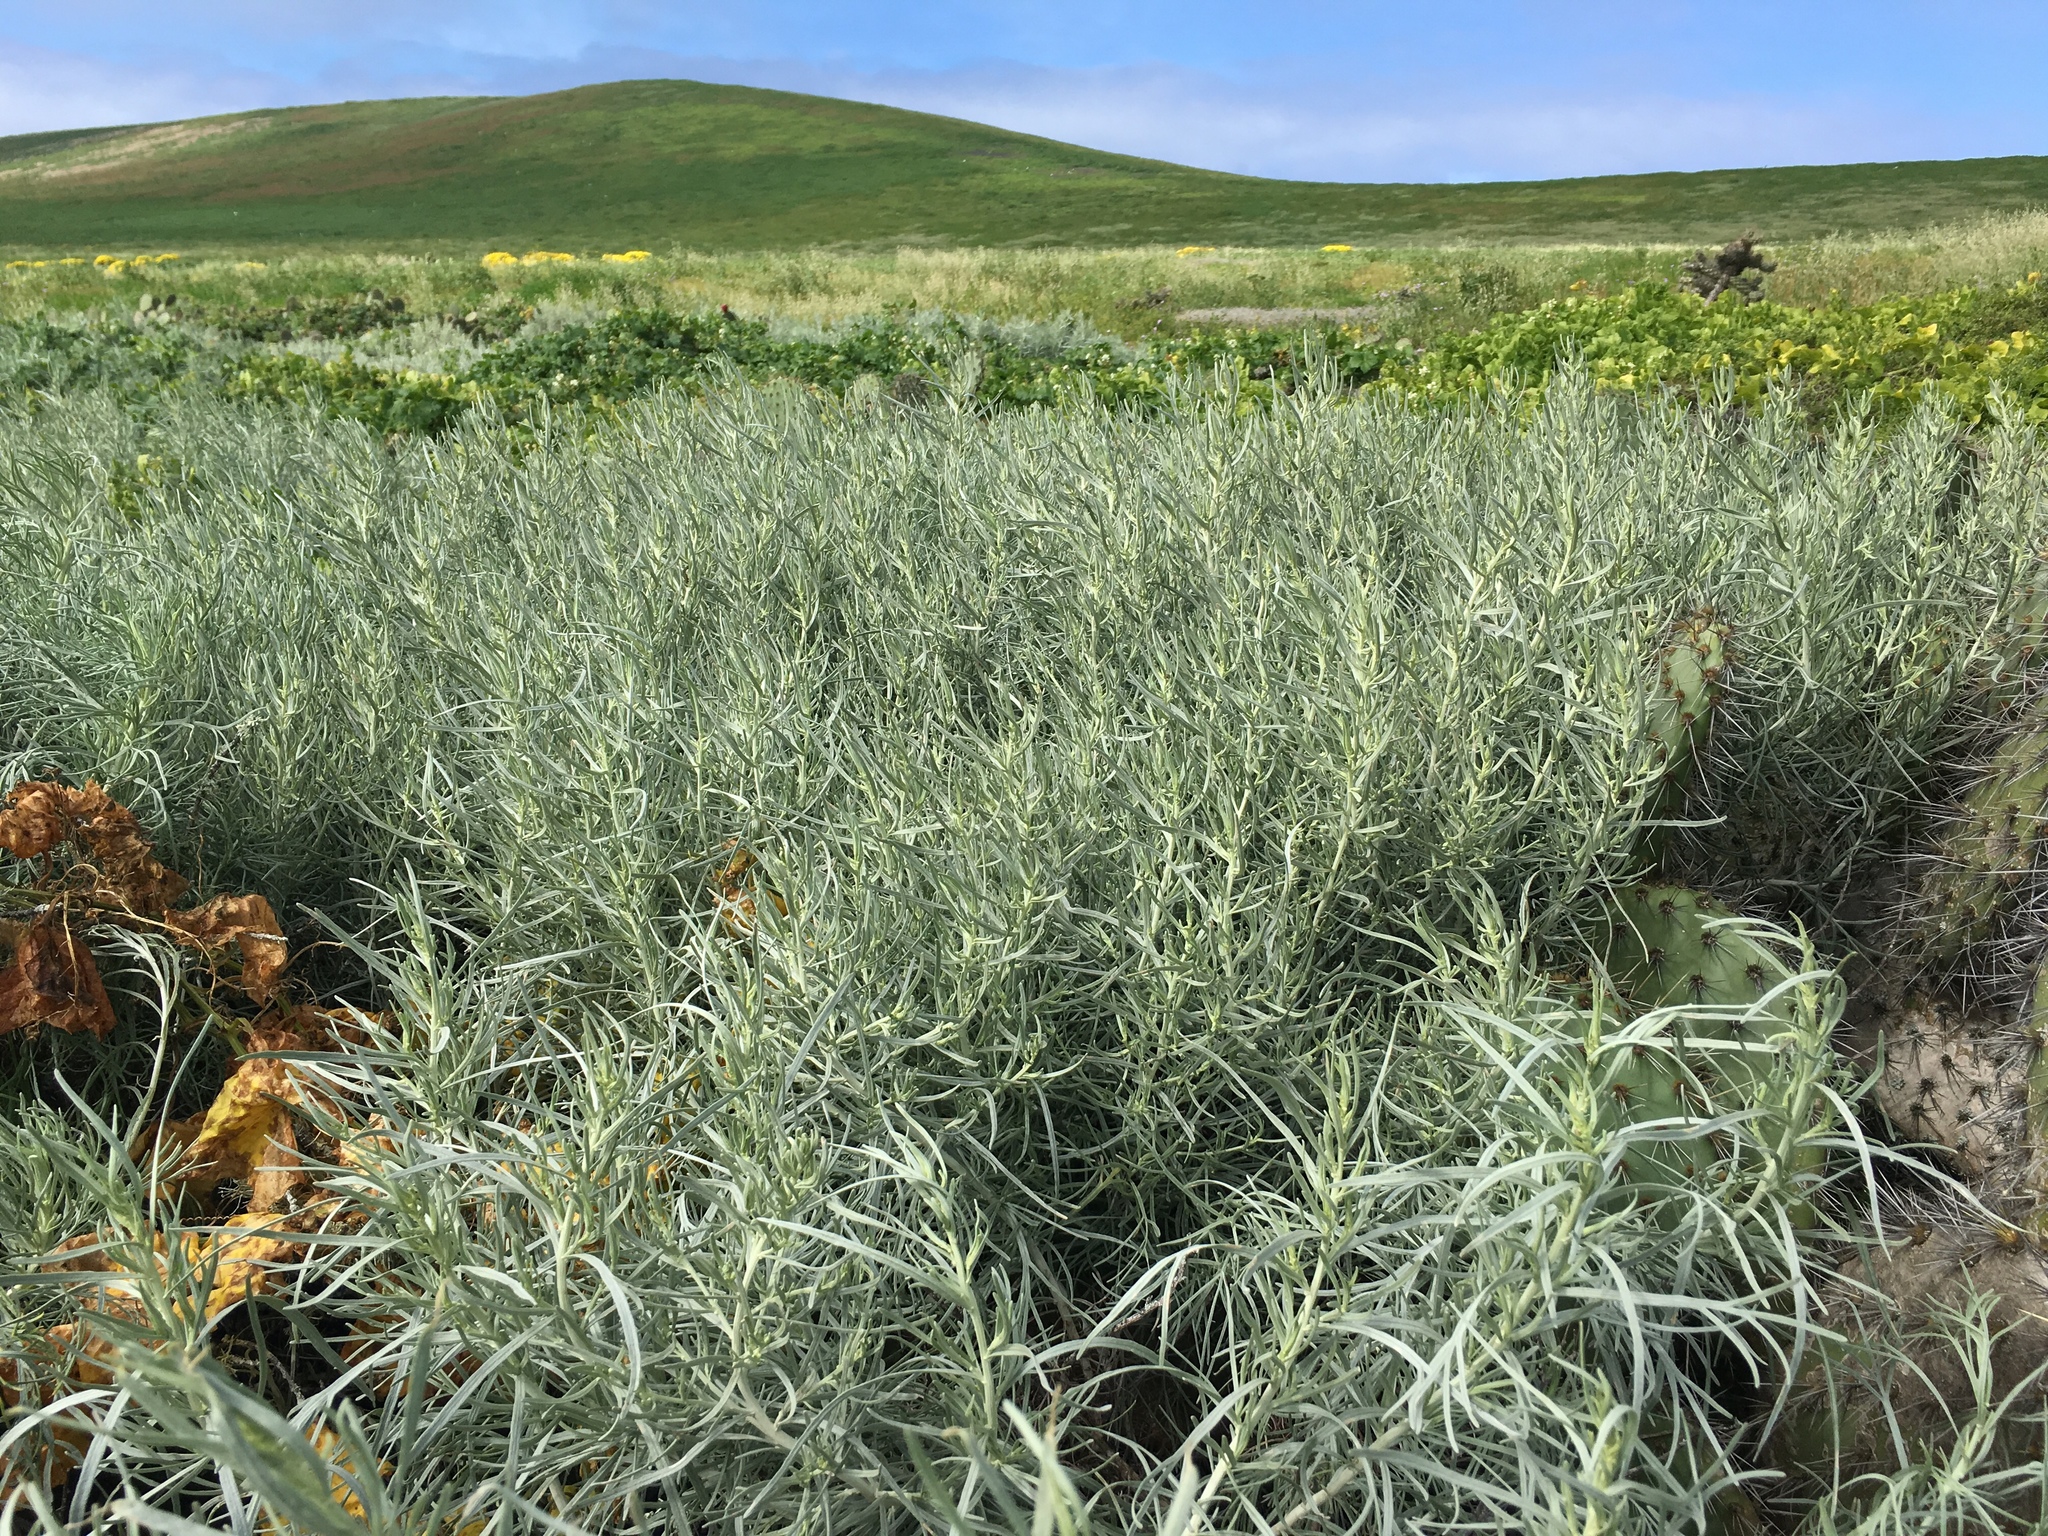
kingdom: Plantae
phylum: Tracheophyta
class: Magnoliopsida
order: Asterales
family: Asteraceae
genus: Artemisia
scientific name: Artemisia nesiotica
